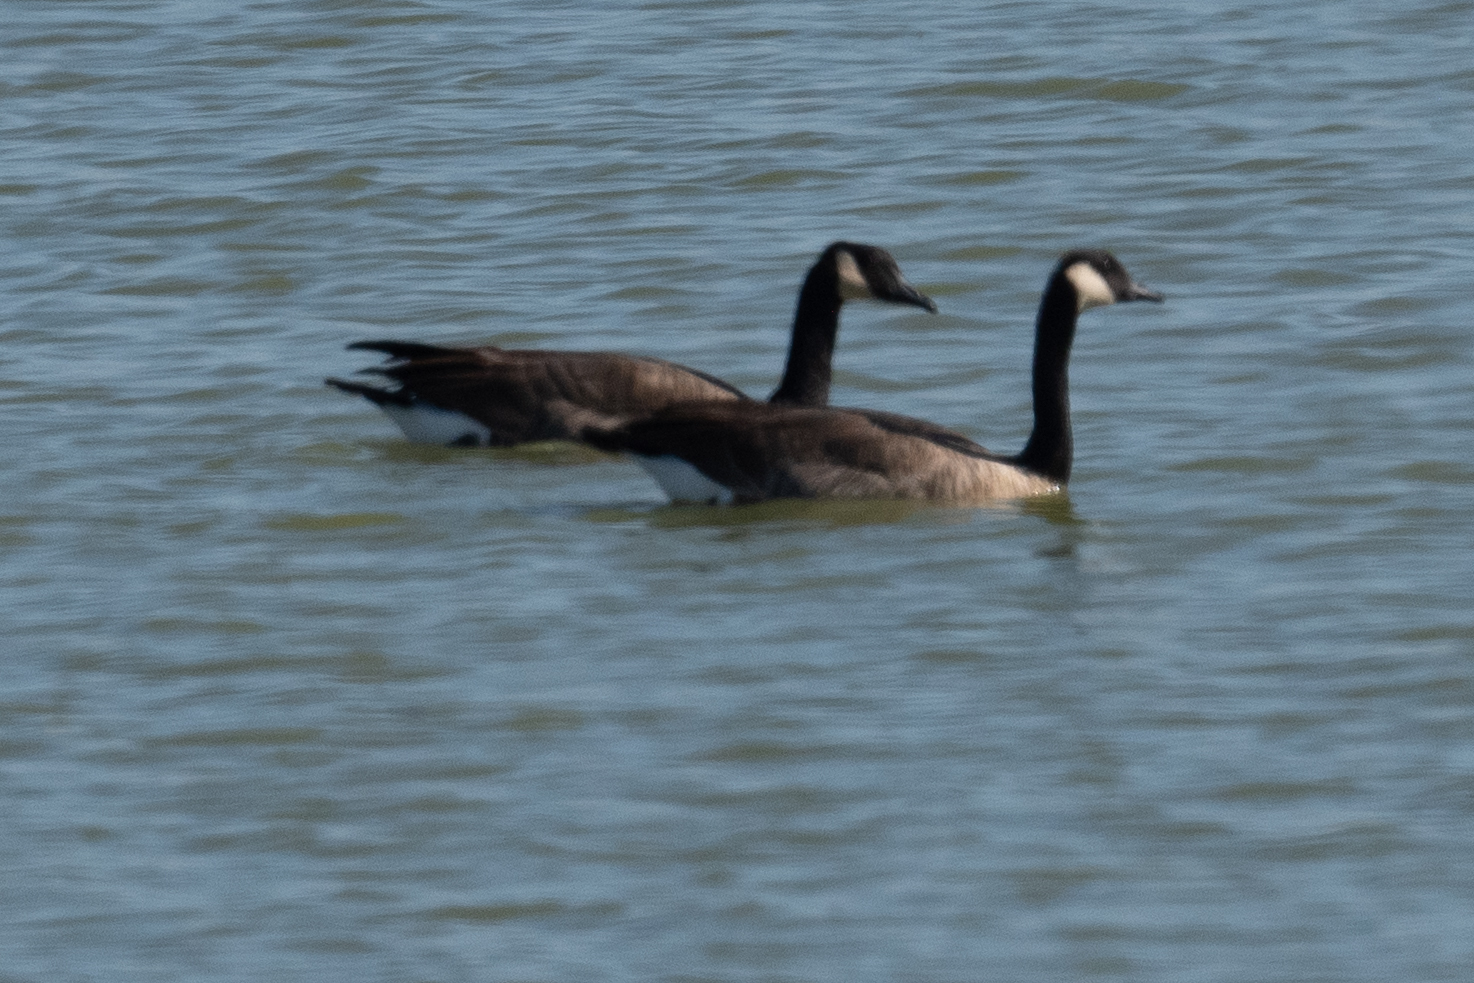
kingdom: Animalia
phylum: Chordata
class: Aves
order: Anseriformes
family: Anatidae
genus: Branta
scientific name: Branta canadensis
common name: Canada goose
